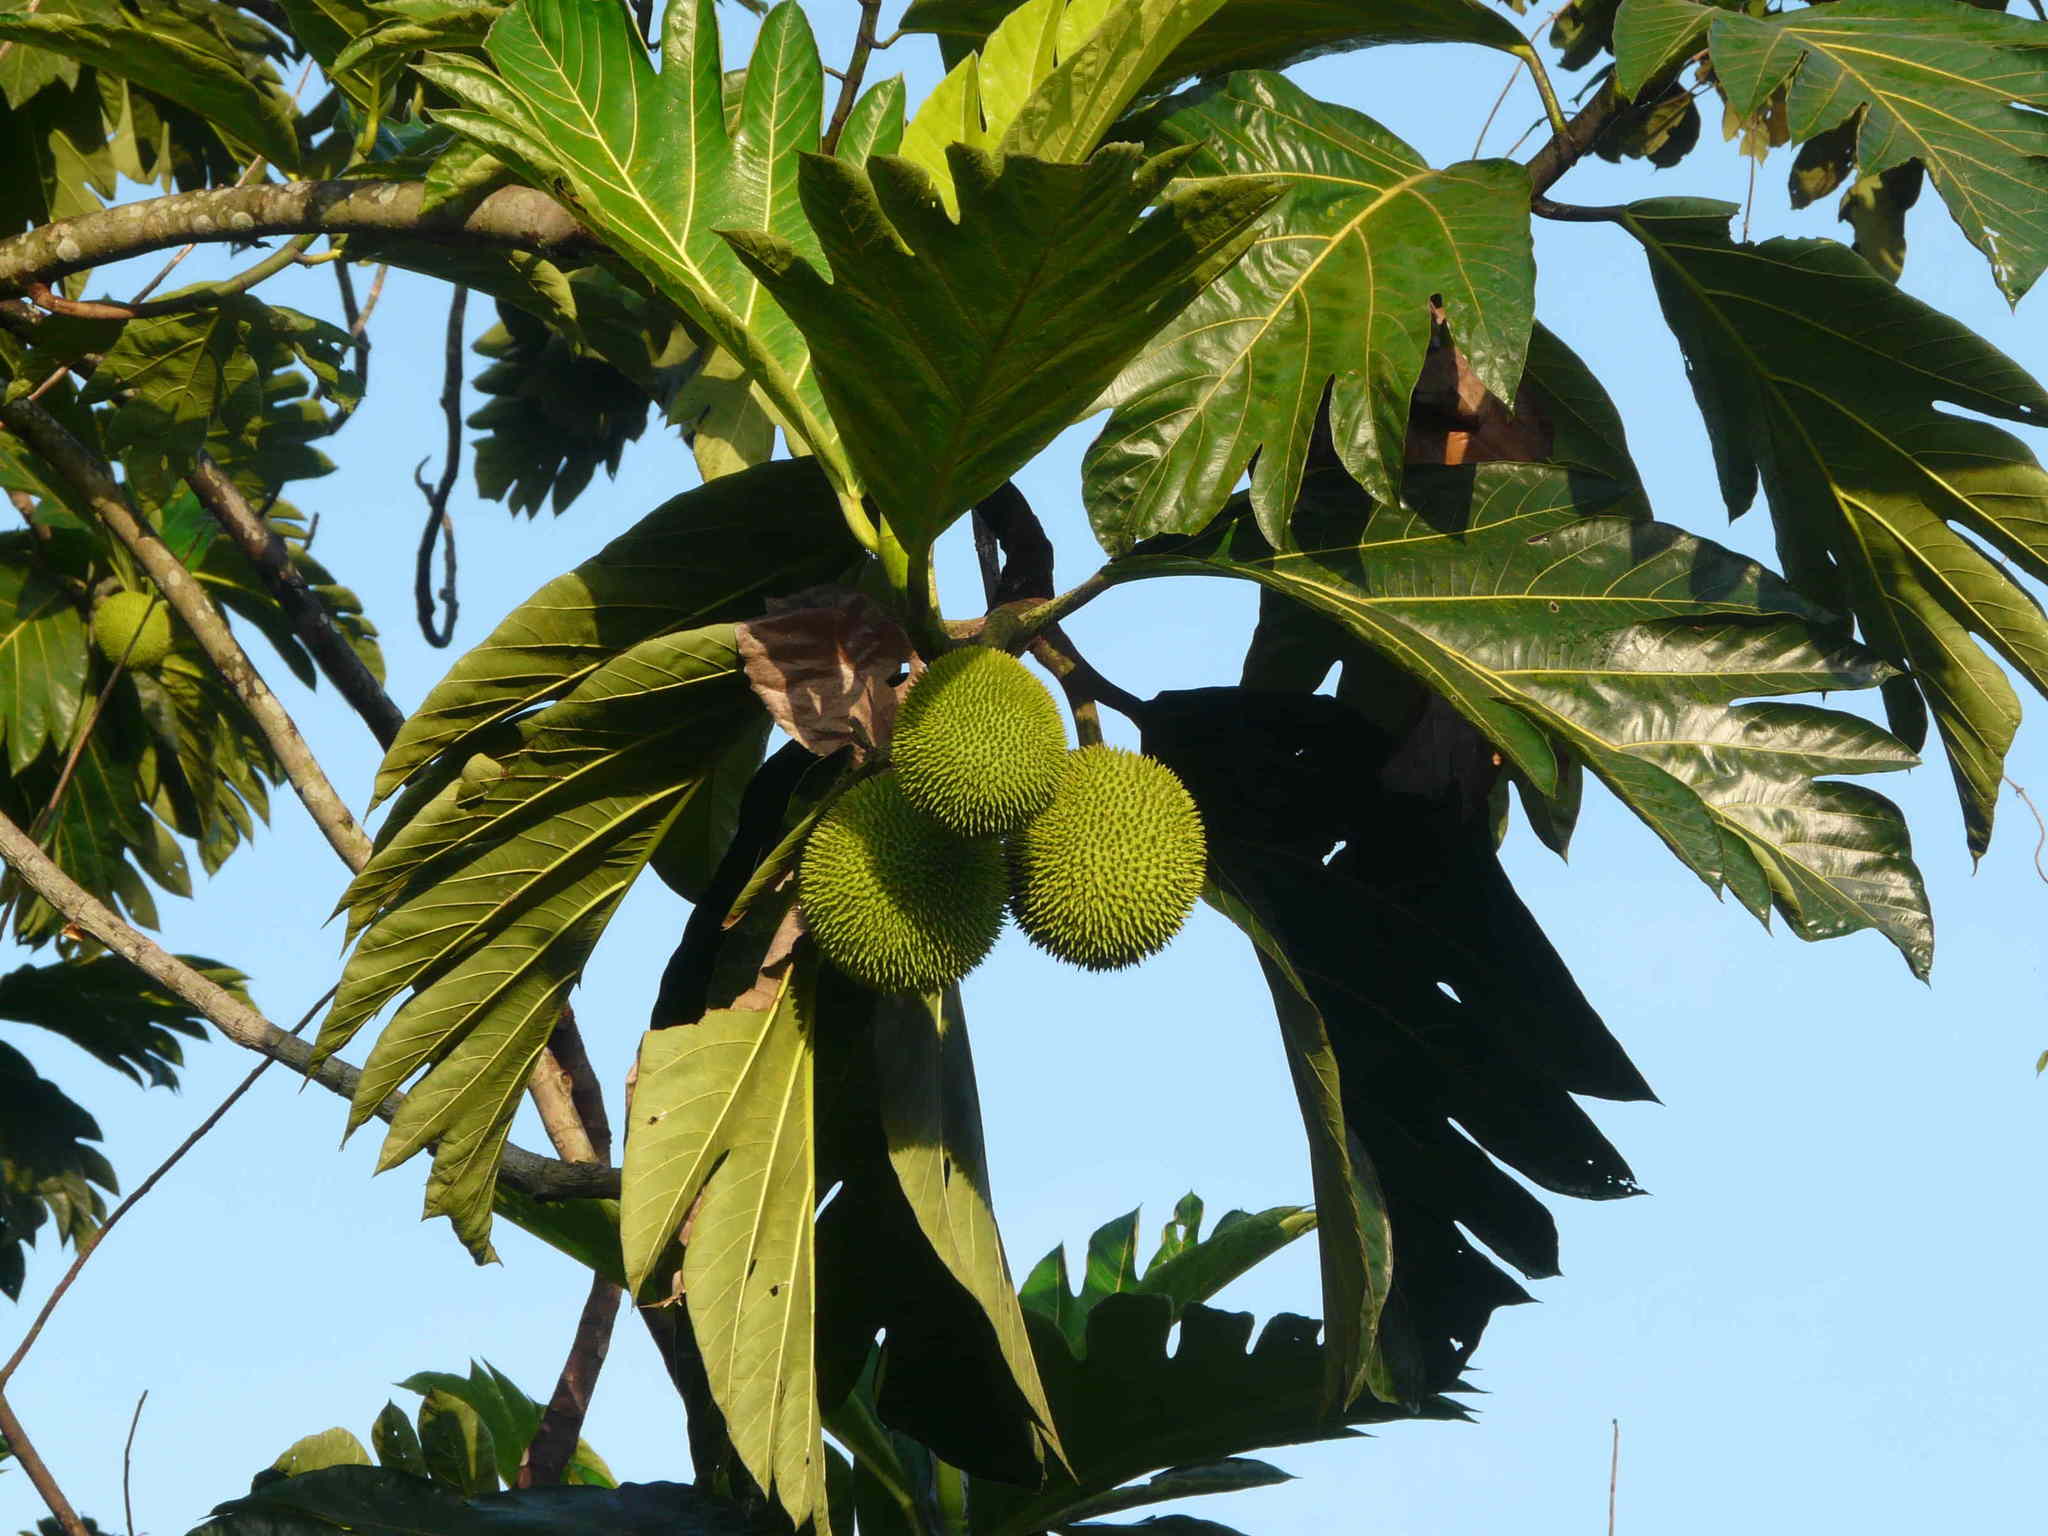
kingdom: Plantae
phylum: Tracheophyta
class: Magnoliopsida
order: Rosales
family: Moraceae
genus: Artocarpus
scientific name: Artocarpus altilis
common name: Breadfruit
